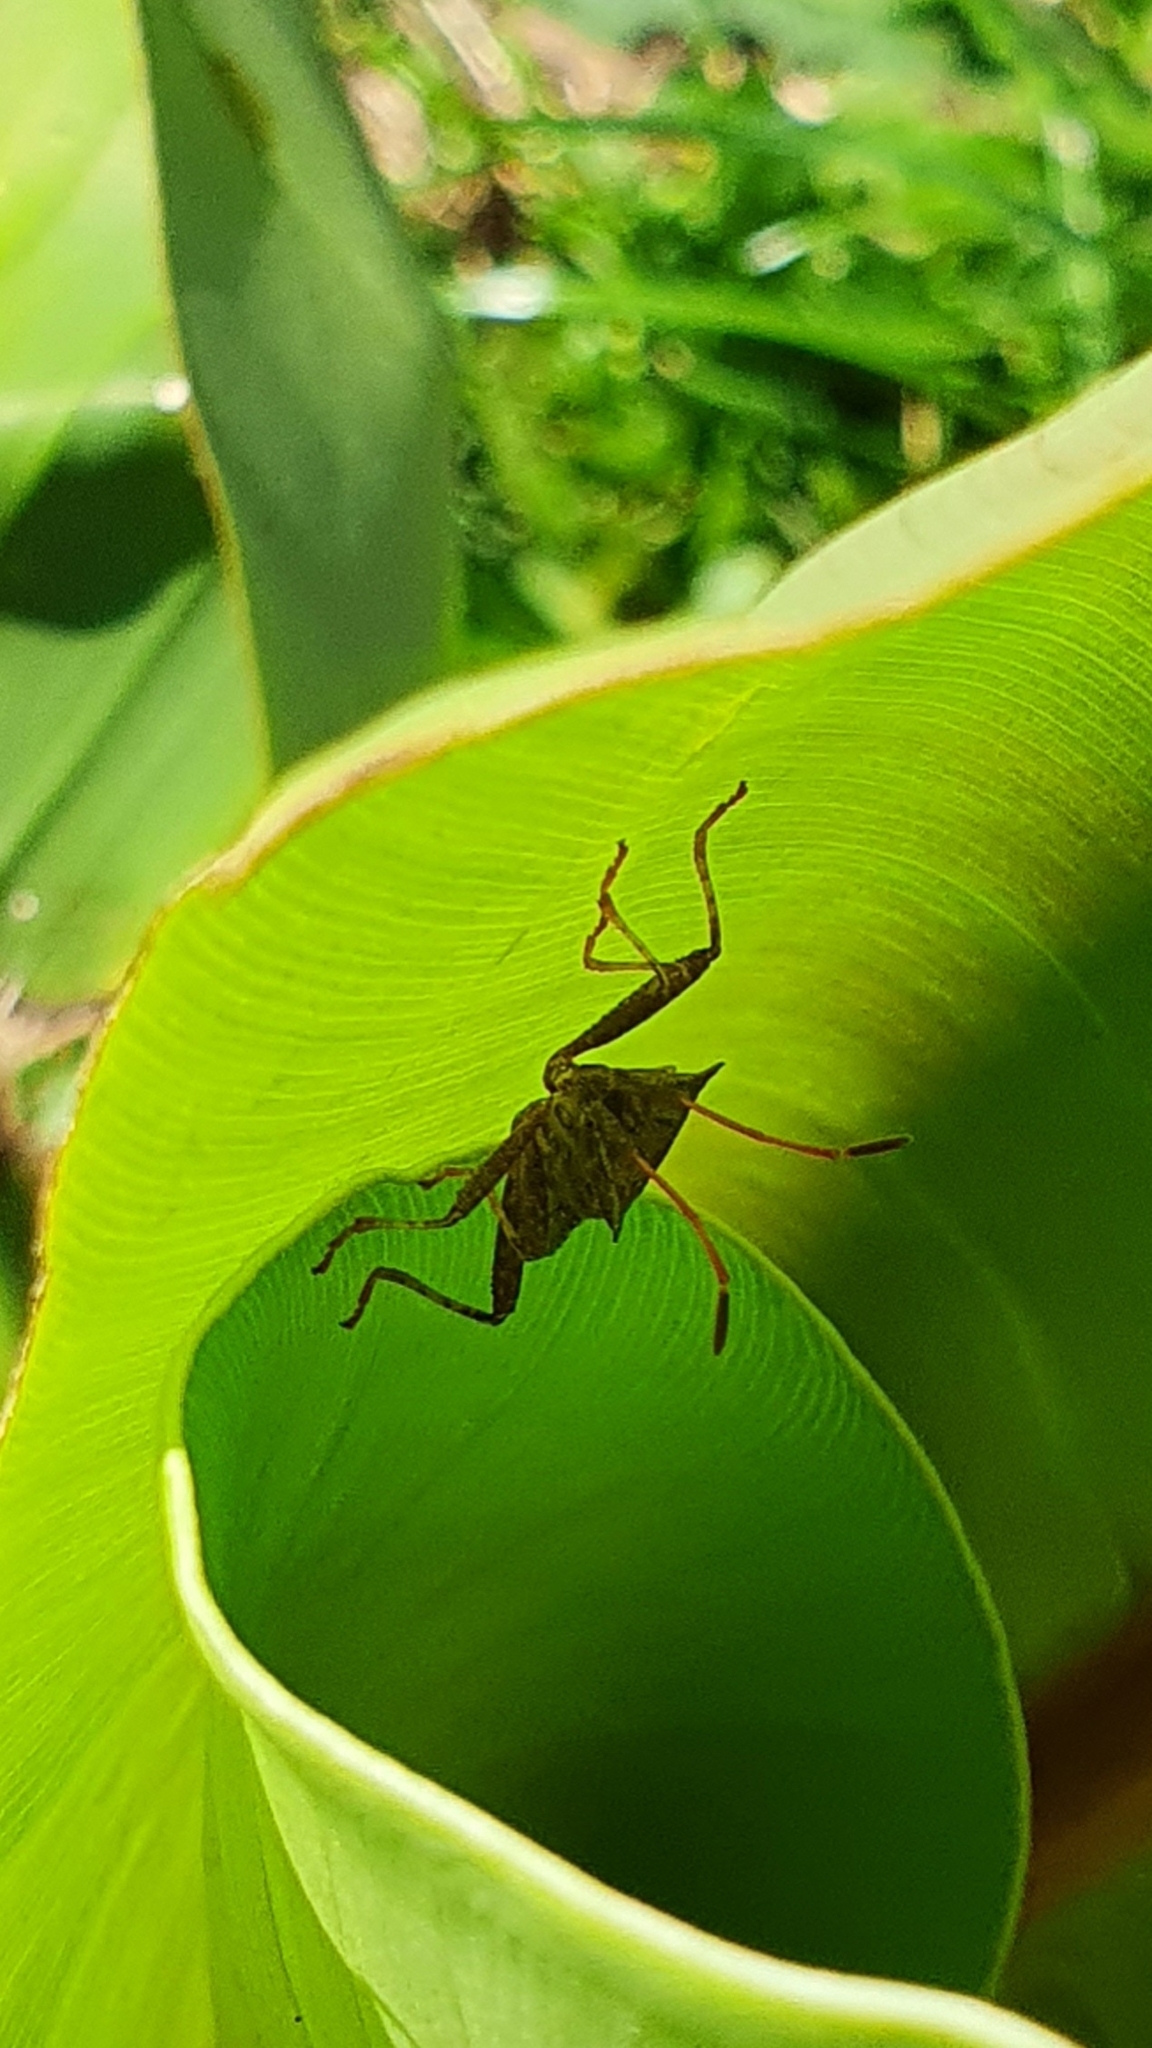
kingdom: Animalia
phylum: Arthropoda
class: Insecta
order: Hemiptera
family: Coreidae
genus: Coreus
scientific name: Coreus marginatus
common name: Dock bug
